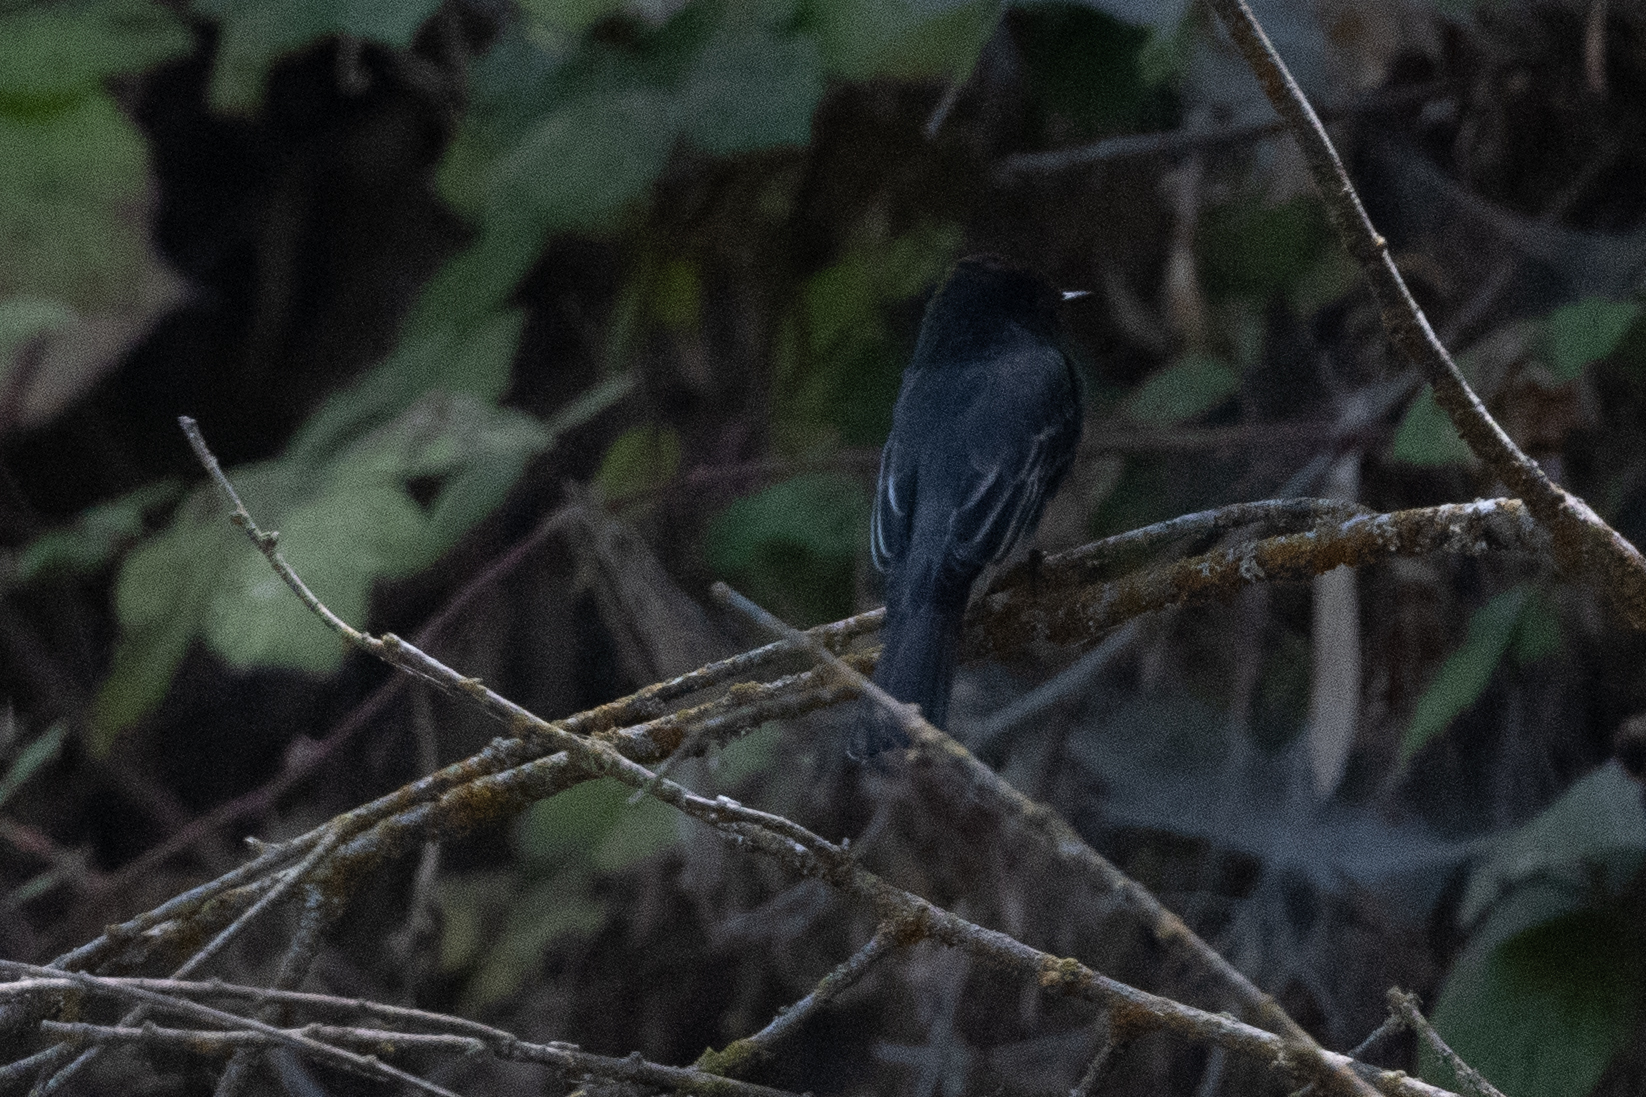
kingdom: Animalia
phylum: Chordata
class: Aves
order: Passeriformes
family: Tyrannidae
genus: Sayornis
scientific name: Sayornis nigricans
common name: Black phoebe
